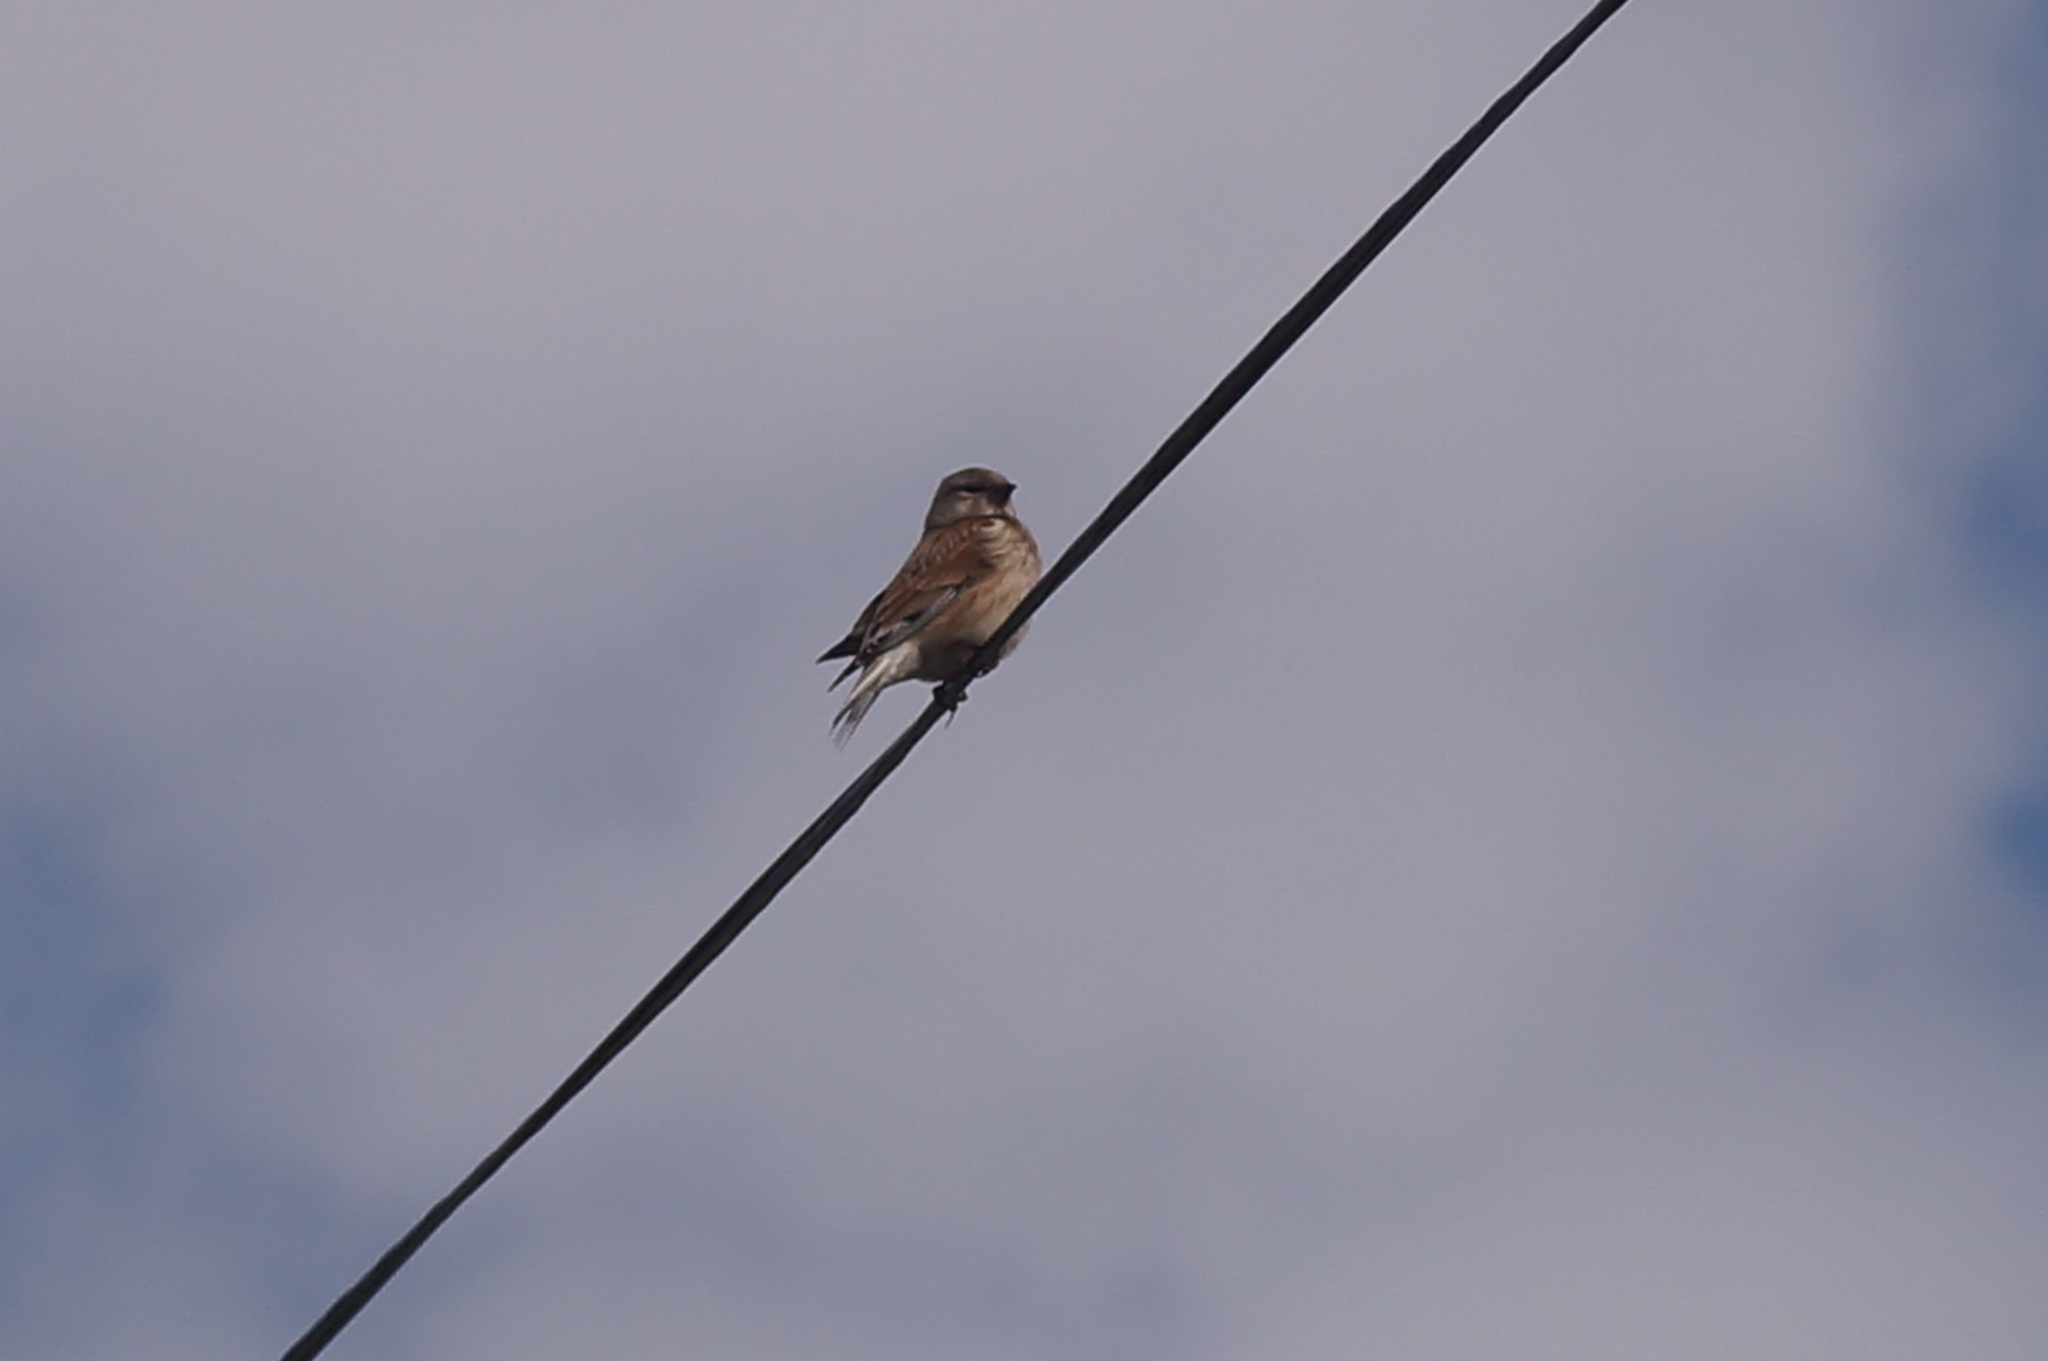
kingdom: Animalia
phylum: Chordata
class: Aves
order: Passeriformes
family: Fringillidae
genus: Linaria
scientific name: Linaria cannabina
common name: Common linnet
